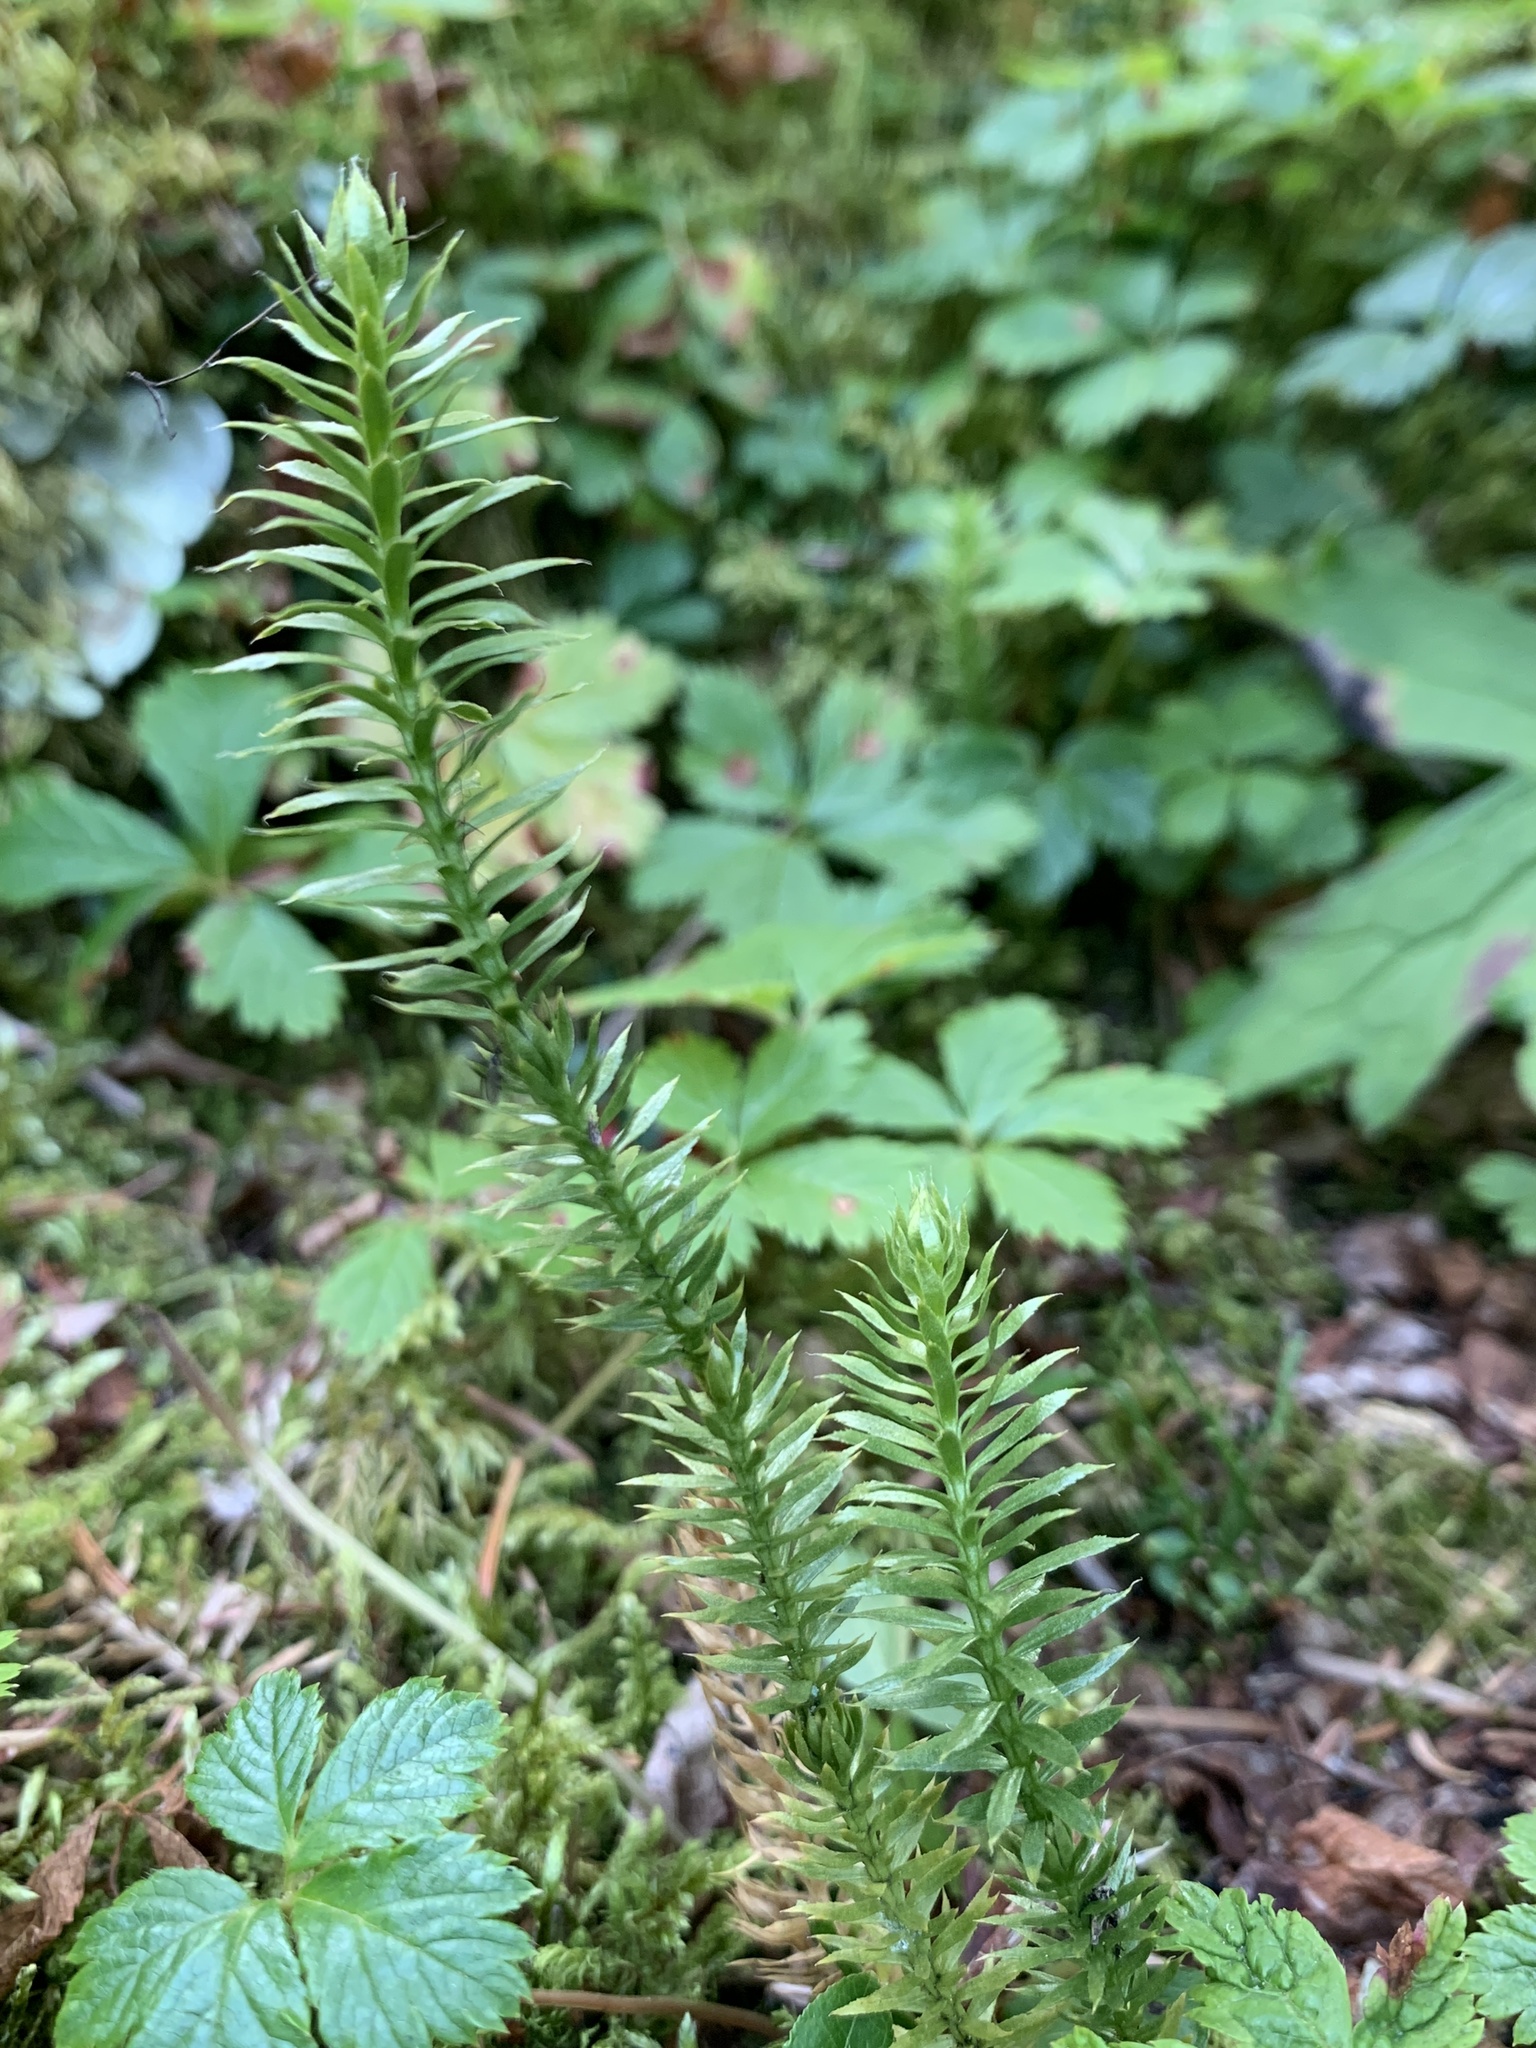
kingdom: Plantae
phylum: Tracheophyta
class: Lycopodiopsida
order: Lycopodiales
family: Lycopodiaceae
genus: Spinulum
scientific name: Spinulum annotinum
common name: Interrupted club-moss
